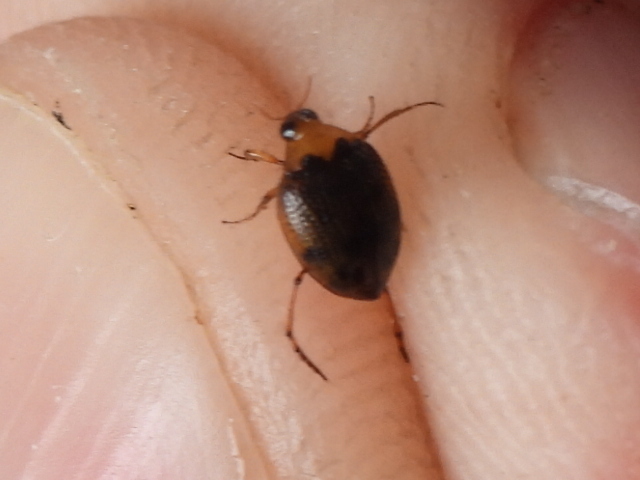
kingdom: Animalia
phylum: Arthropoda
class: Insecta
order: Coleoptera
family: Haliplidae
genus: Peltodytes
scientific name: Peltodytes dietrichi
